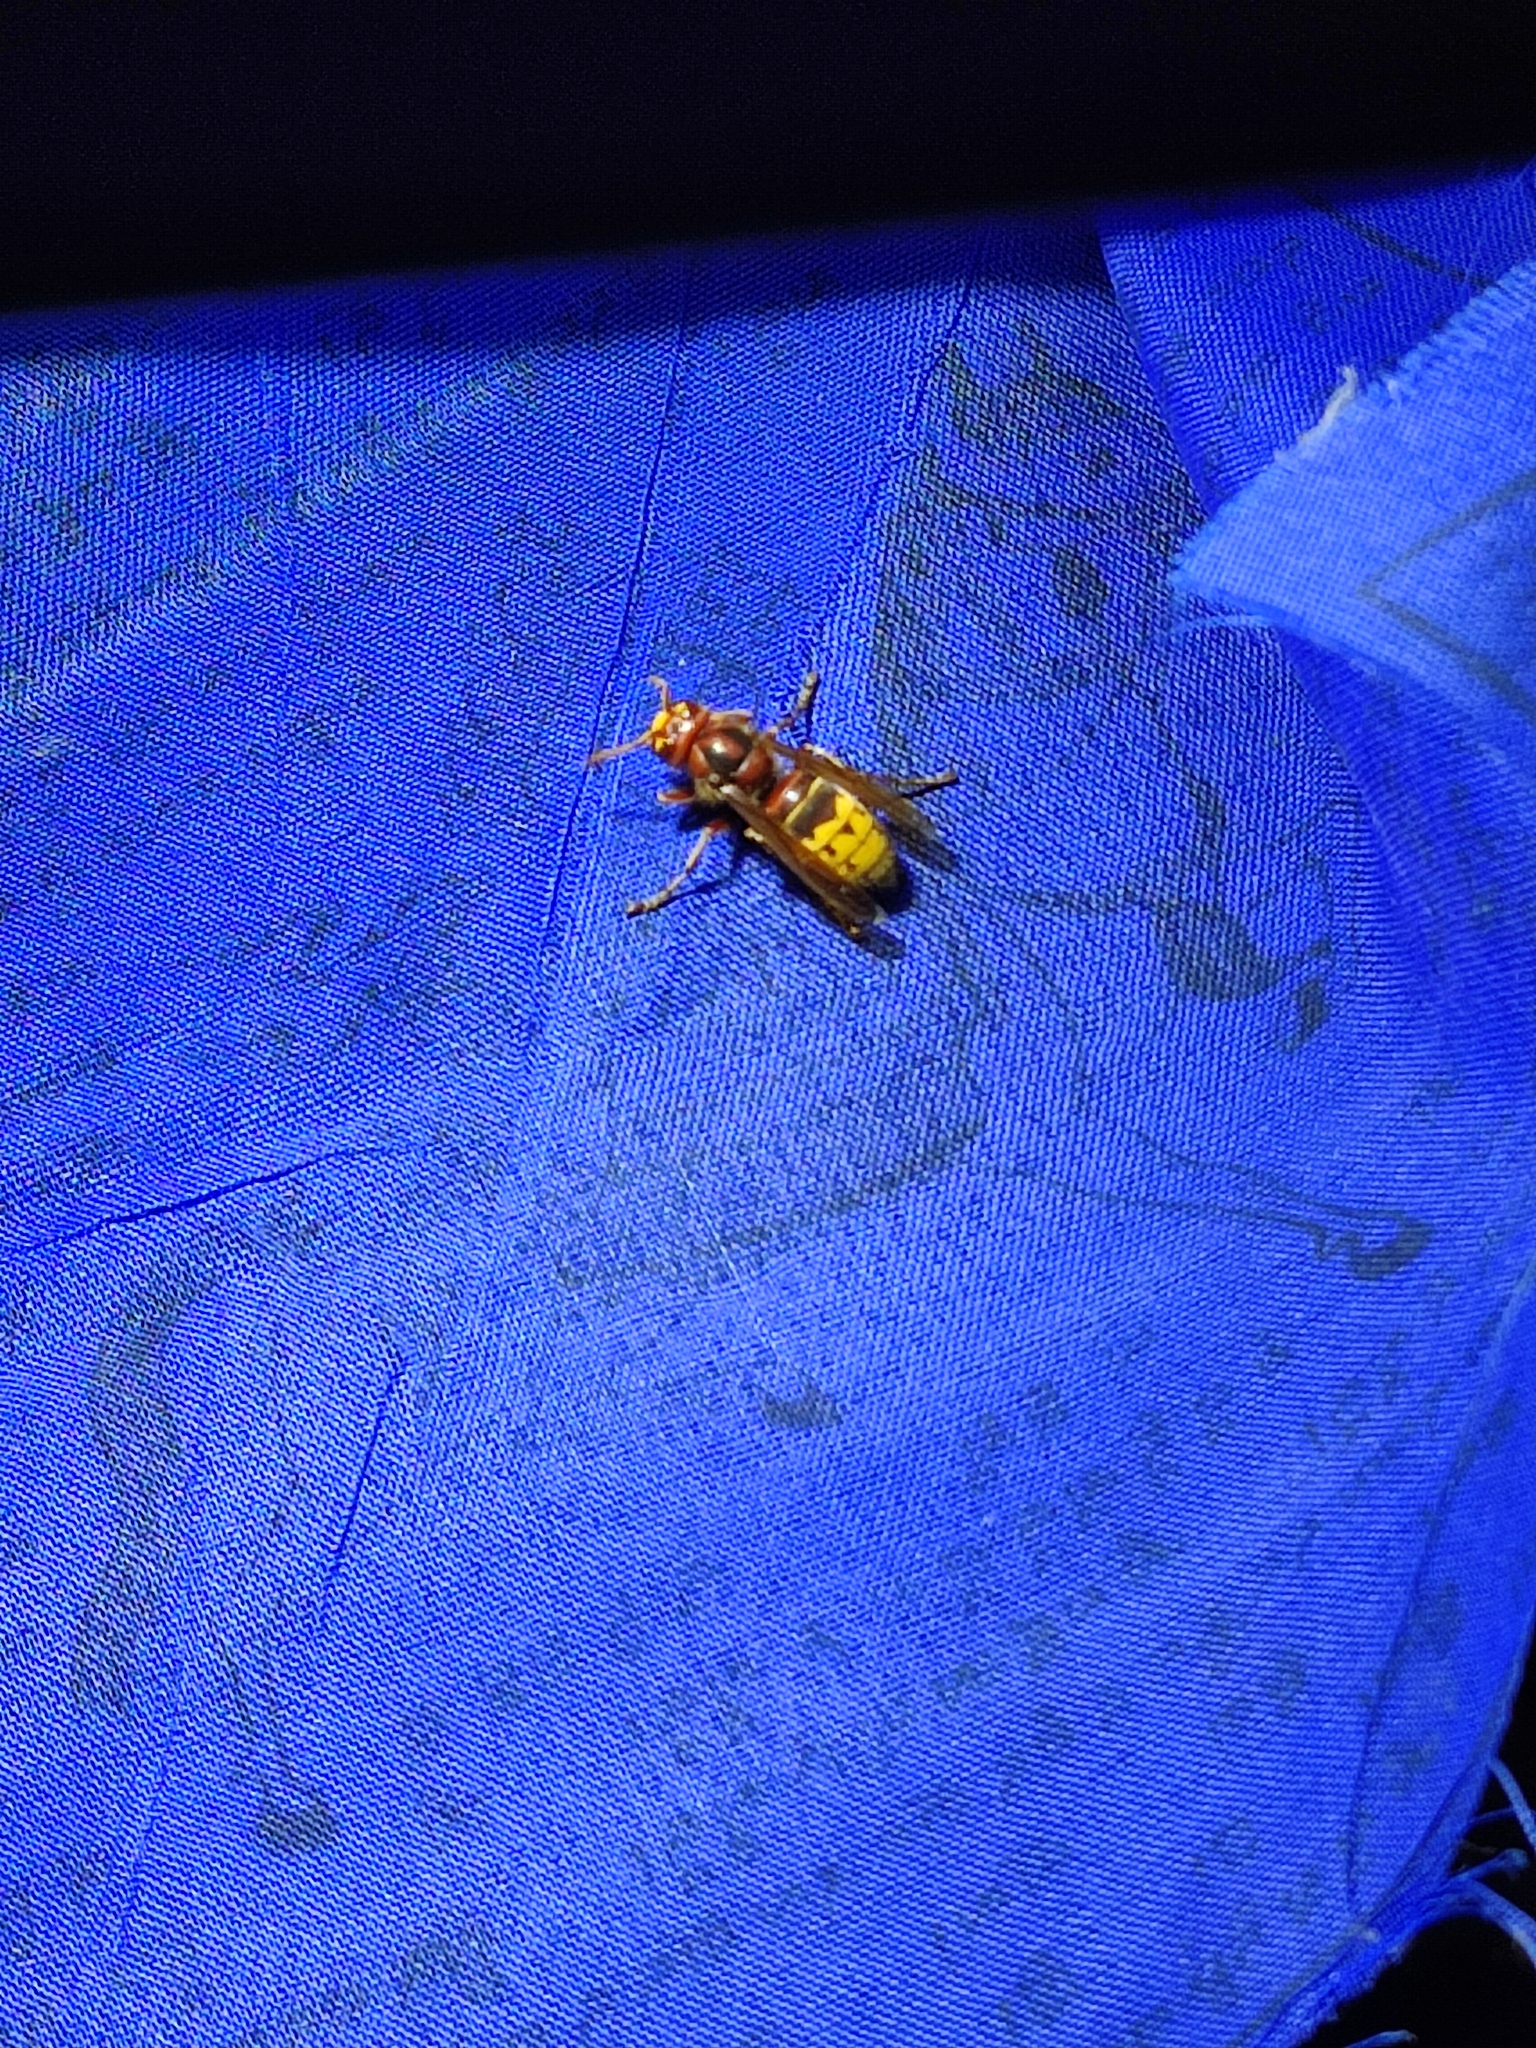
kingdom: Animalia
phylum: Arthropoda
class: Insecta
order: Hymenoptera
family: Vespidae
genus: Vespa
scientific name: Vespa crabro
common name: Hornet
